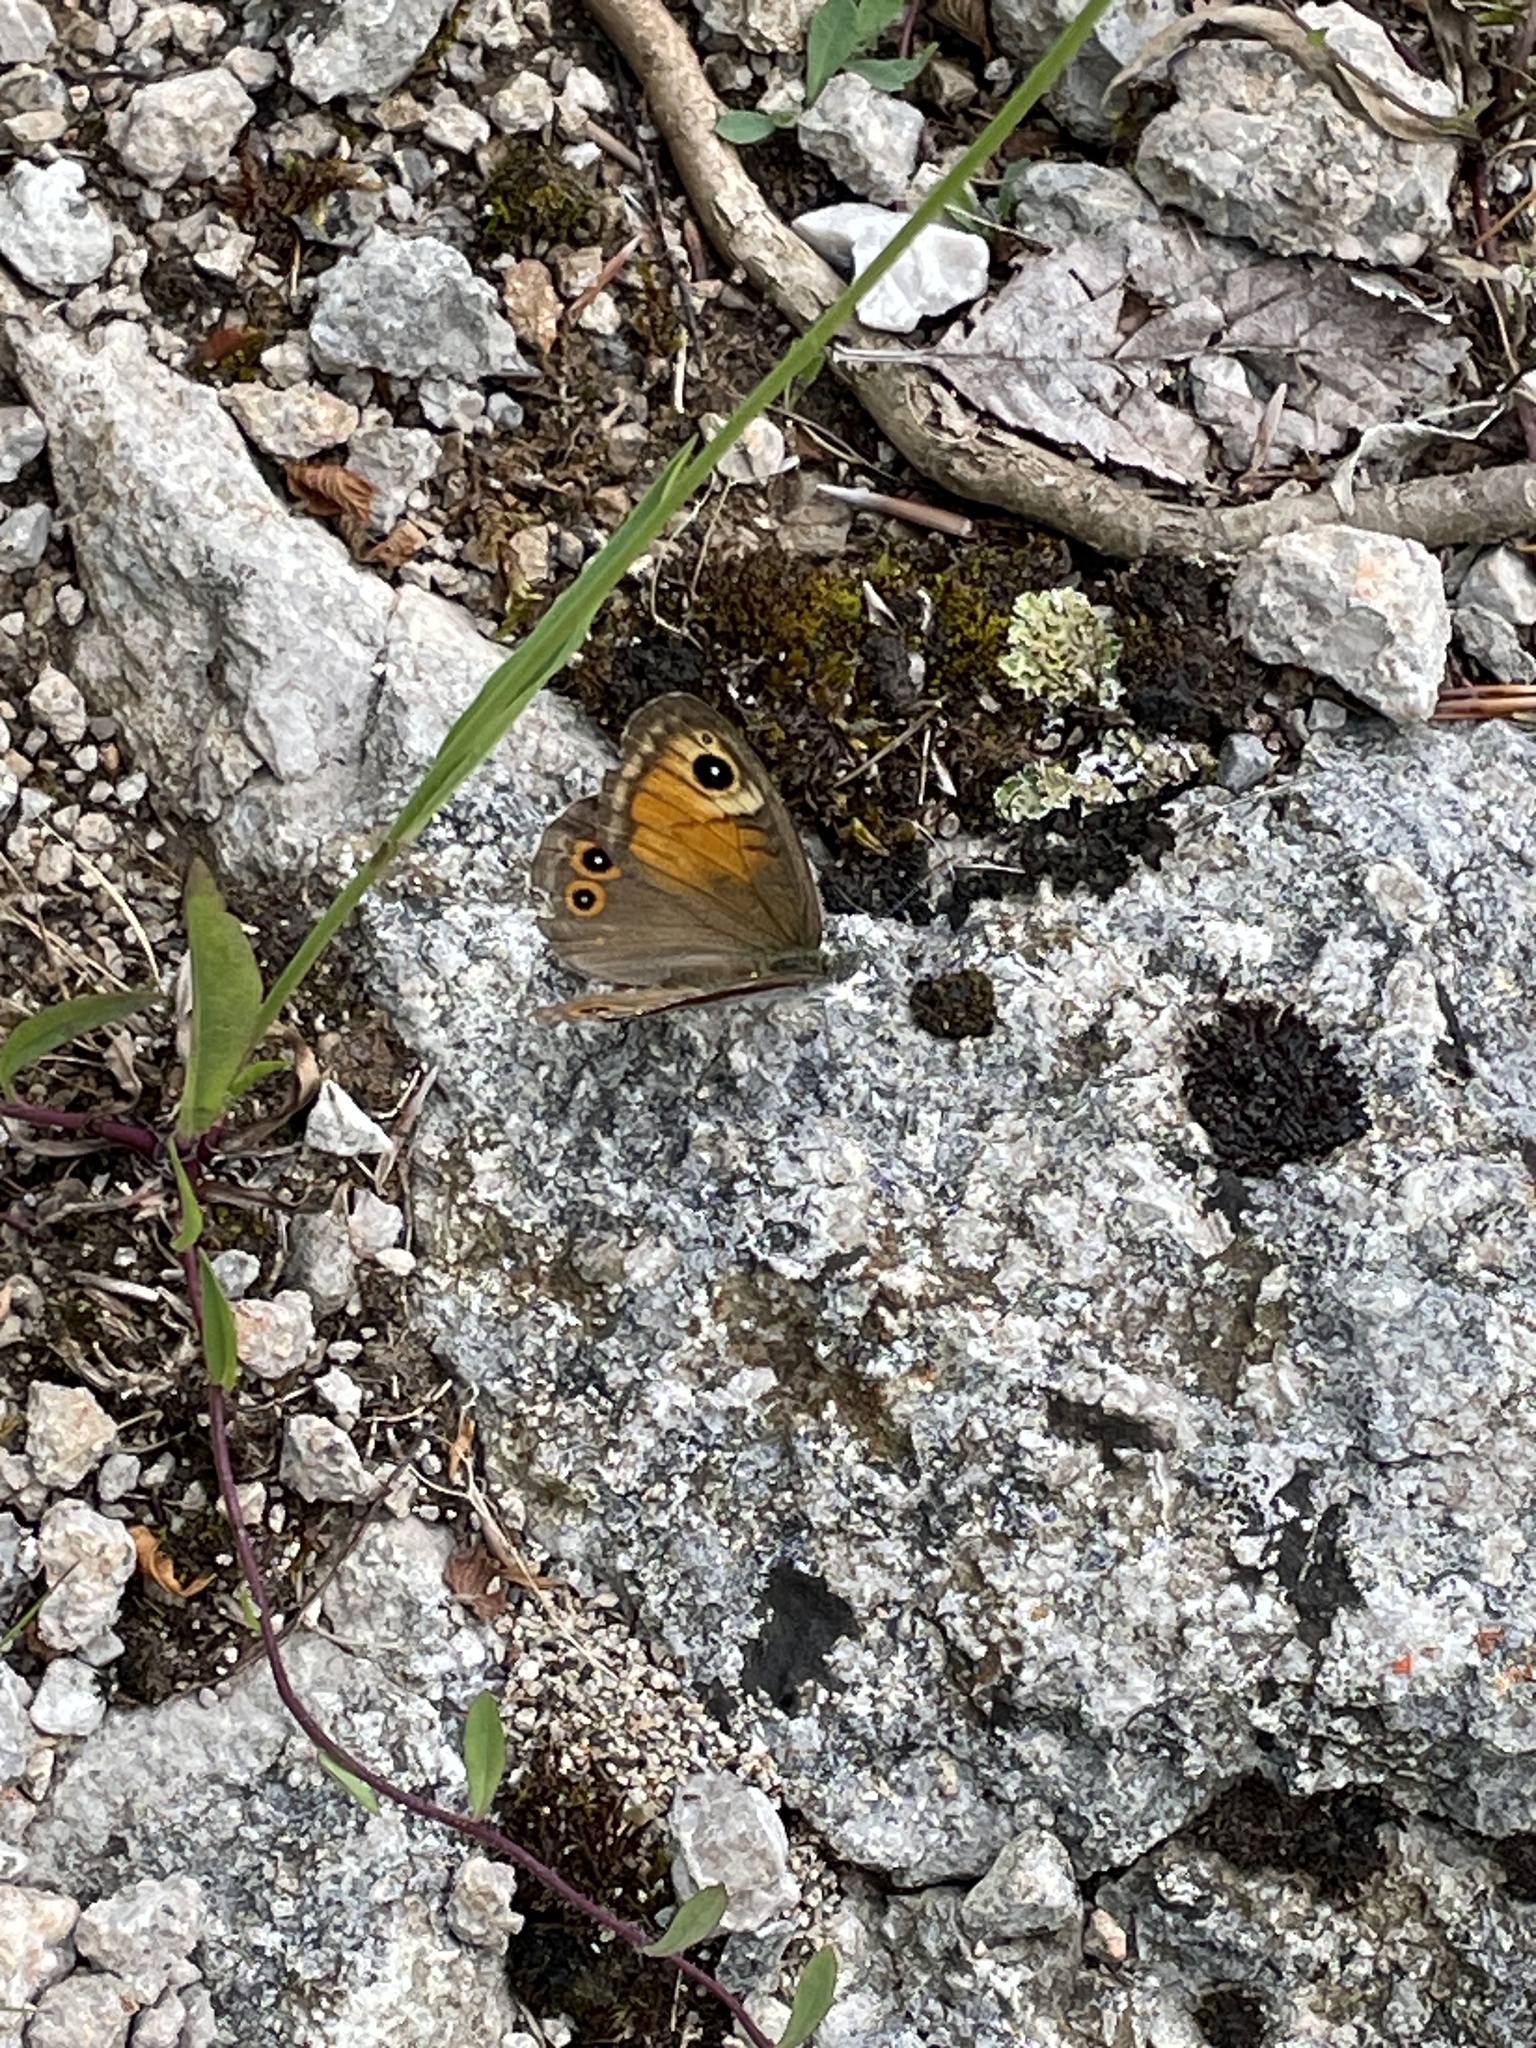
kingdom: Animalia
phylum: Arthropoda
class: Insecta
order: Lepidoptera
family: Nymphalidae
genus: Pararge
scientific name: Pararge Lasiommata maera
